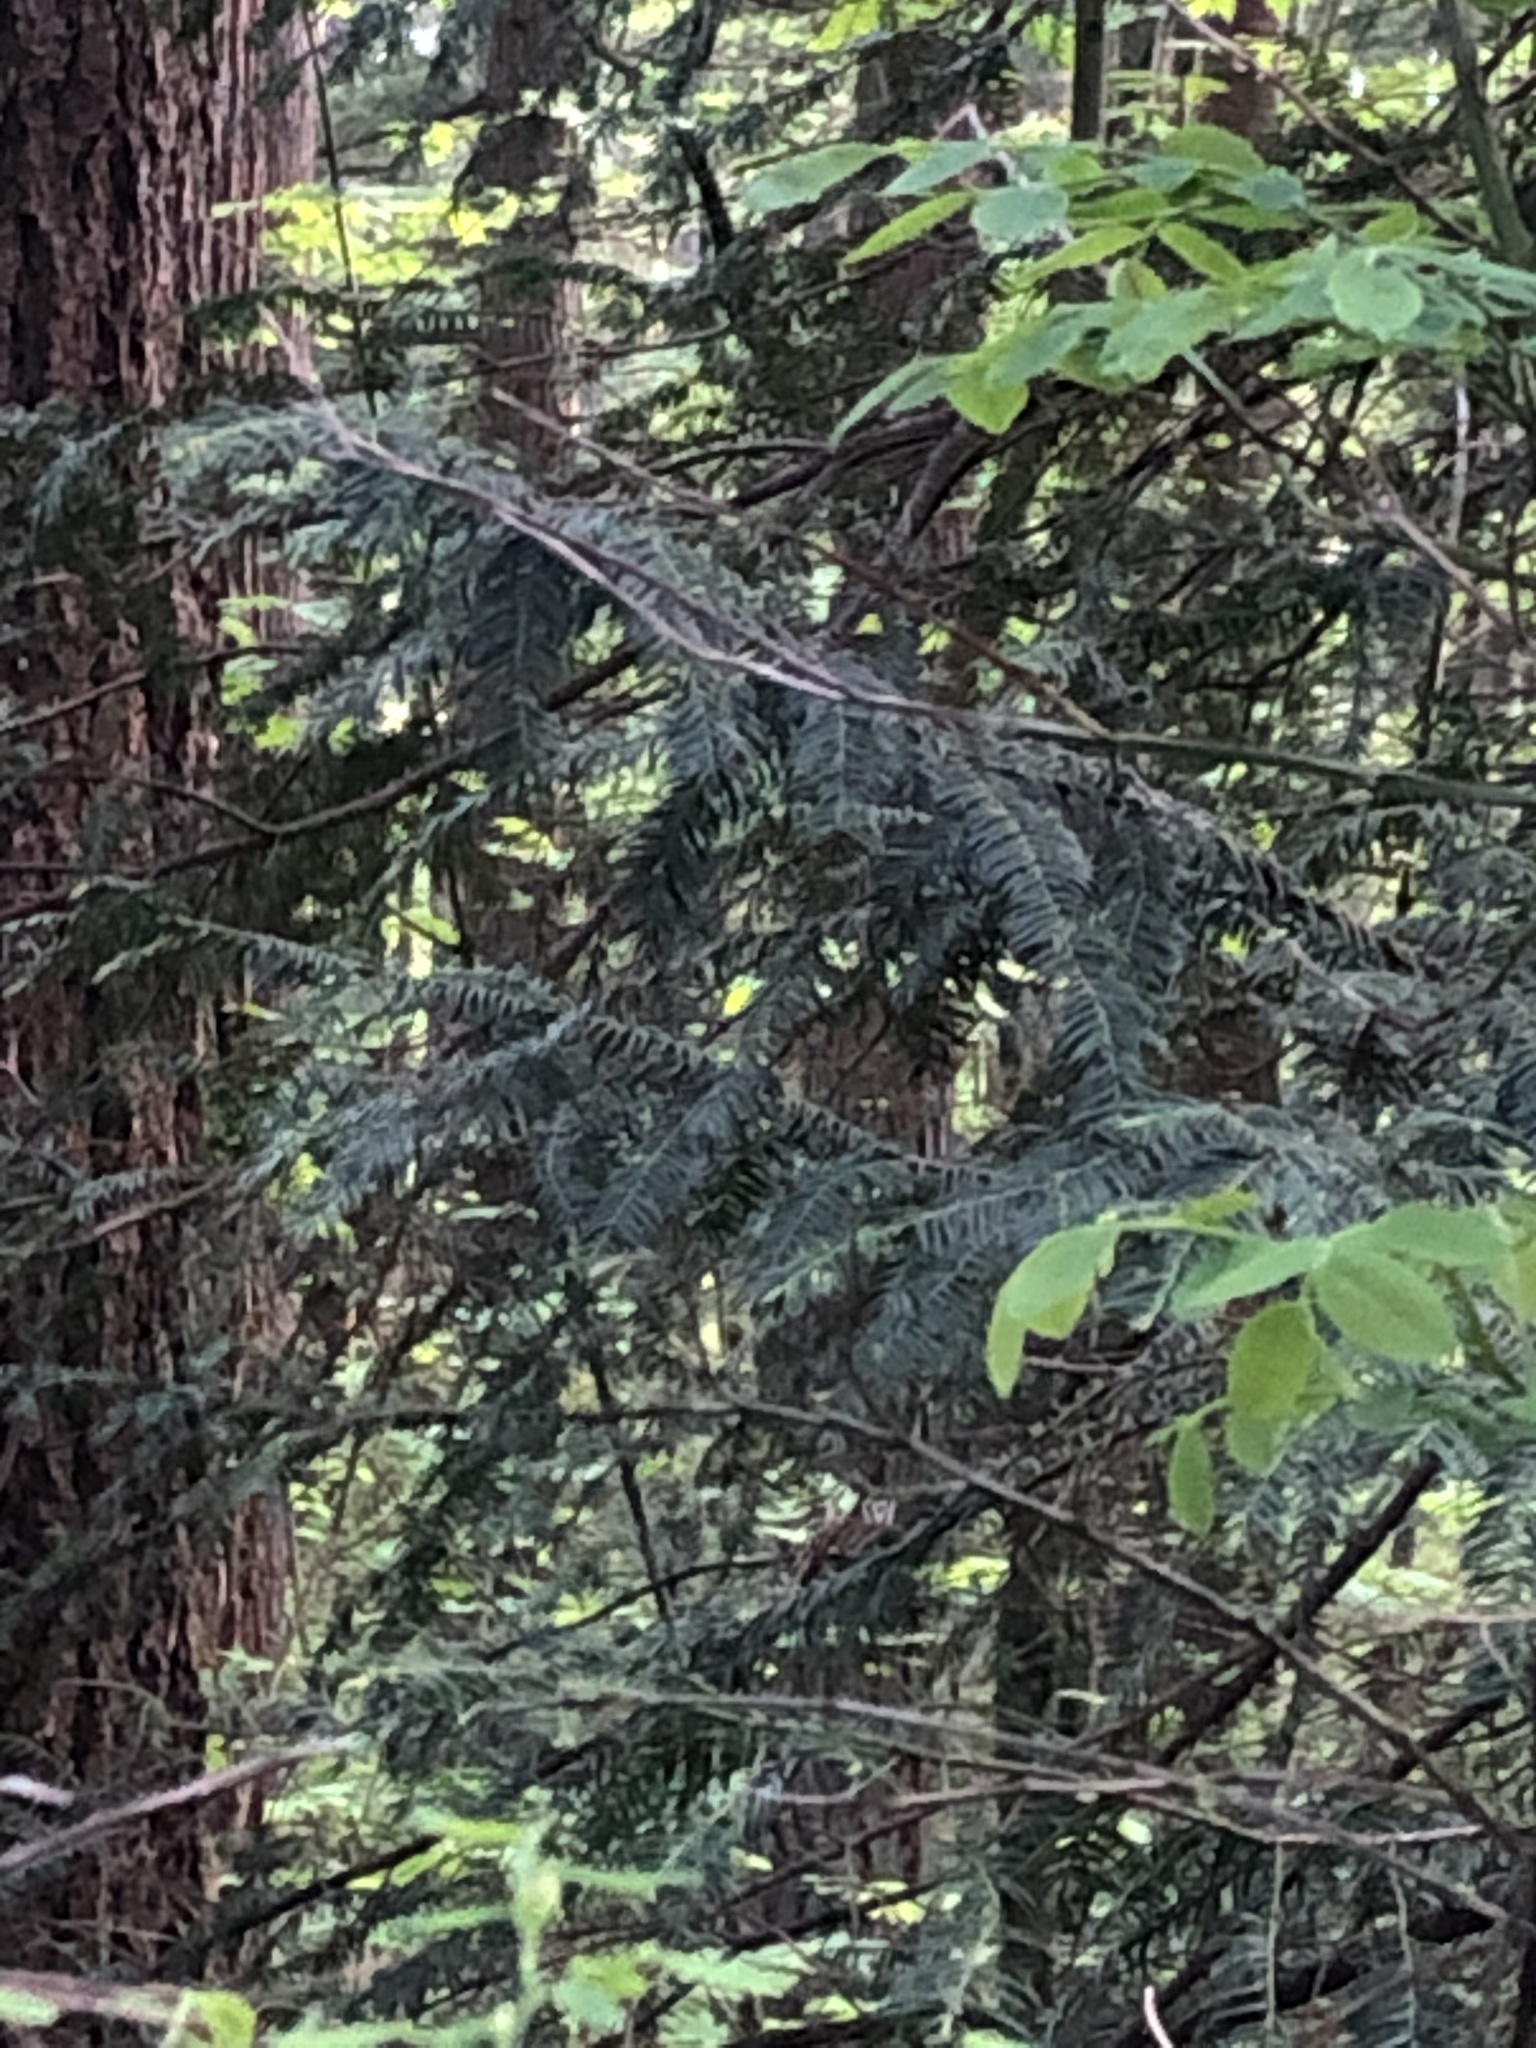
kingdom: Plantae
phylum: Tracheophyta
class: Pinopsida
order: Pinales
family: Taxaceae
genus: Taxus
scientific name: Taxus brevifolia
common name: Pacific yew
